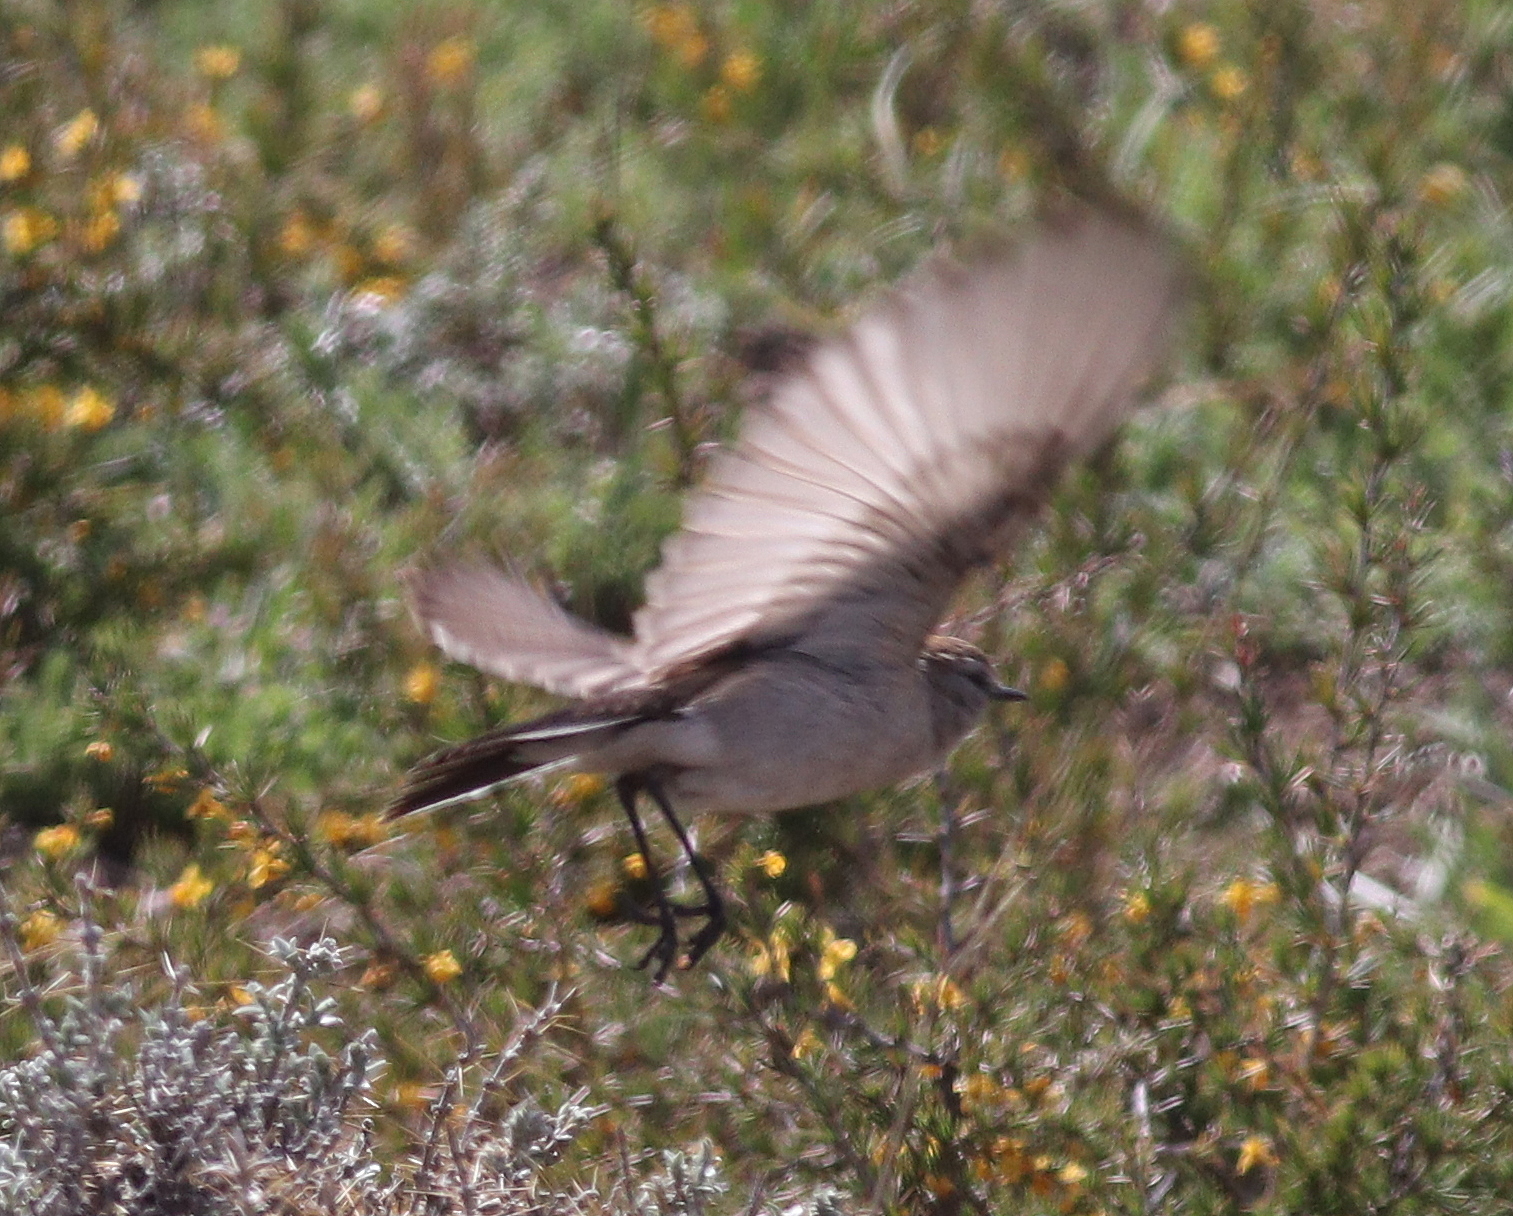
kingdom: Animalia
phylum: Chordata
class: Aves
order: Passeriformes
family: Tyrannidae
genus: Muscisaxicola
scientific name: Muscisaxicola albilora
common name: White-browed ground tyrant
